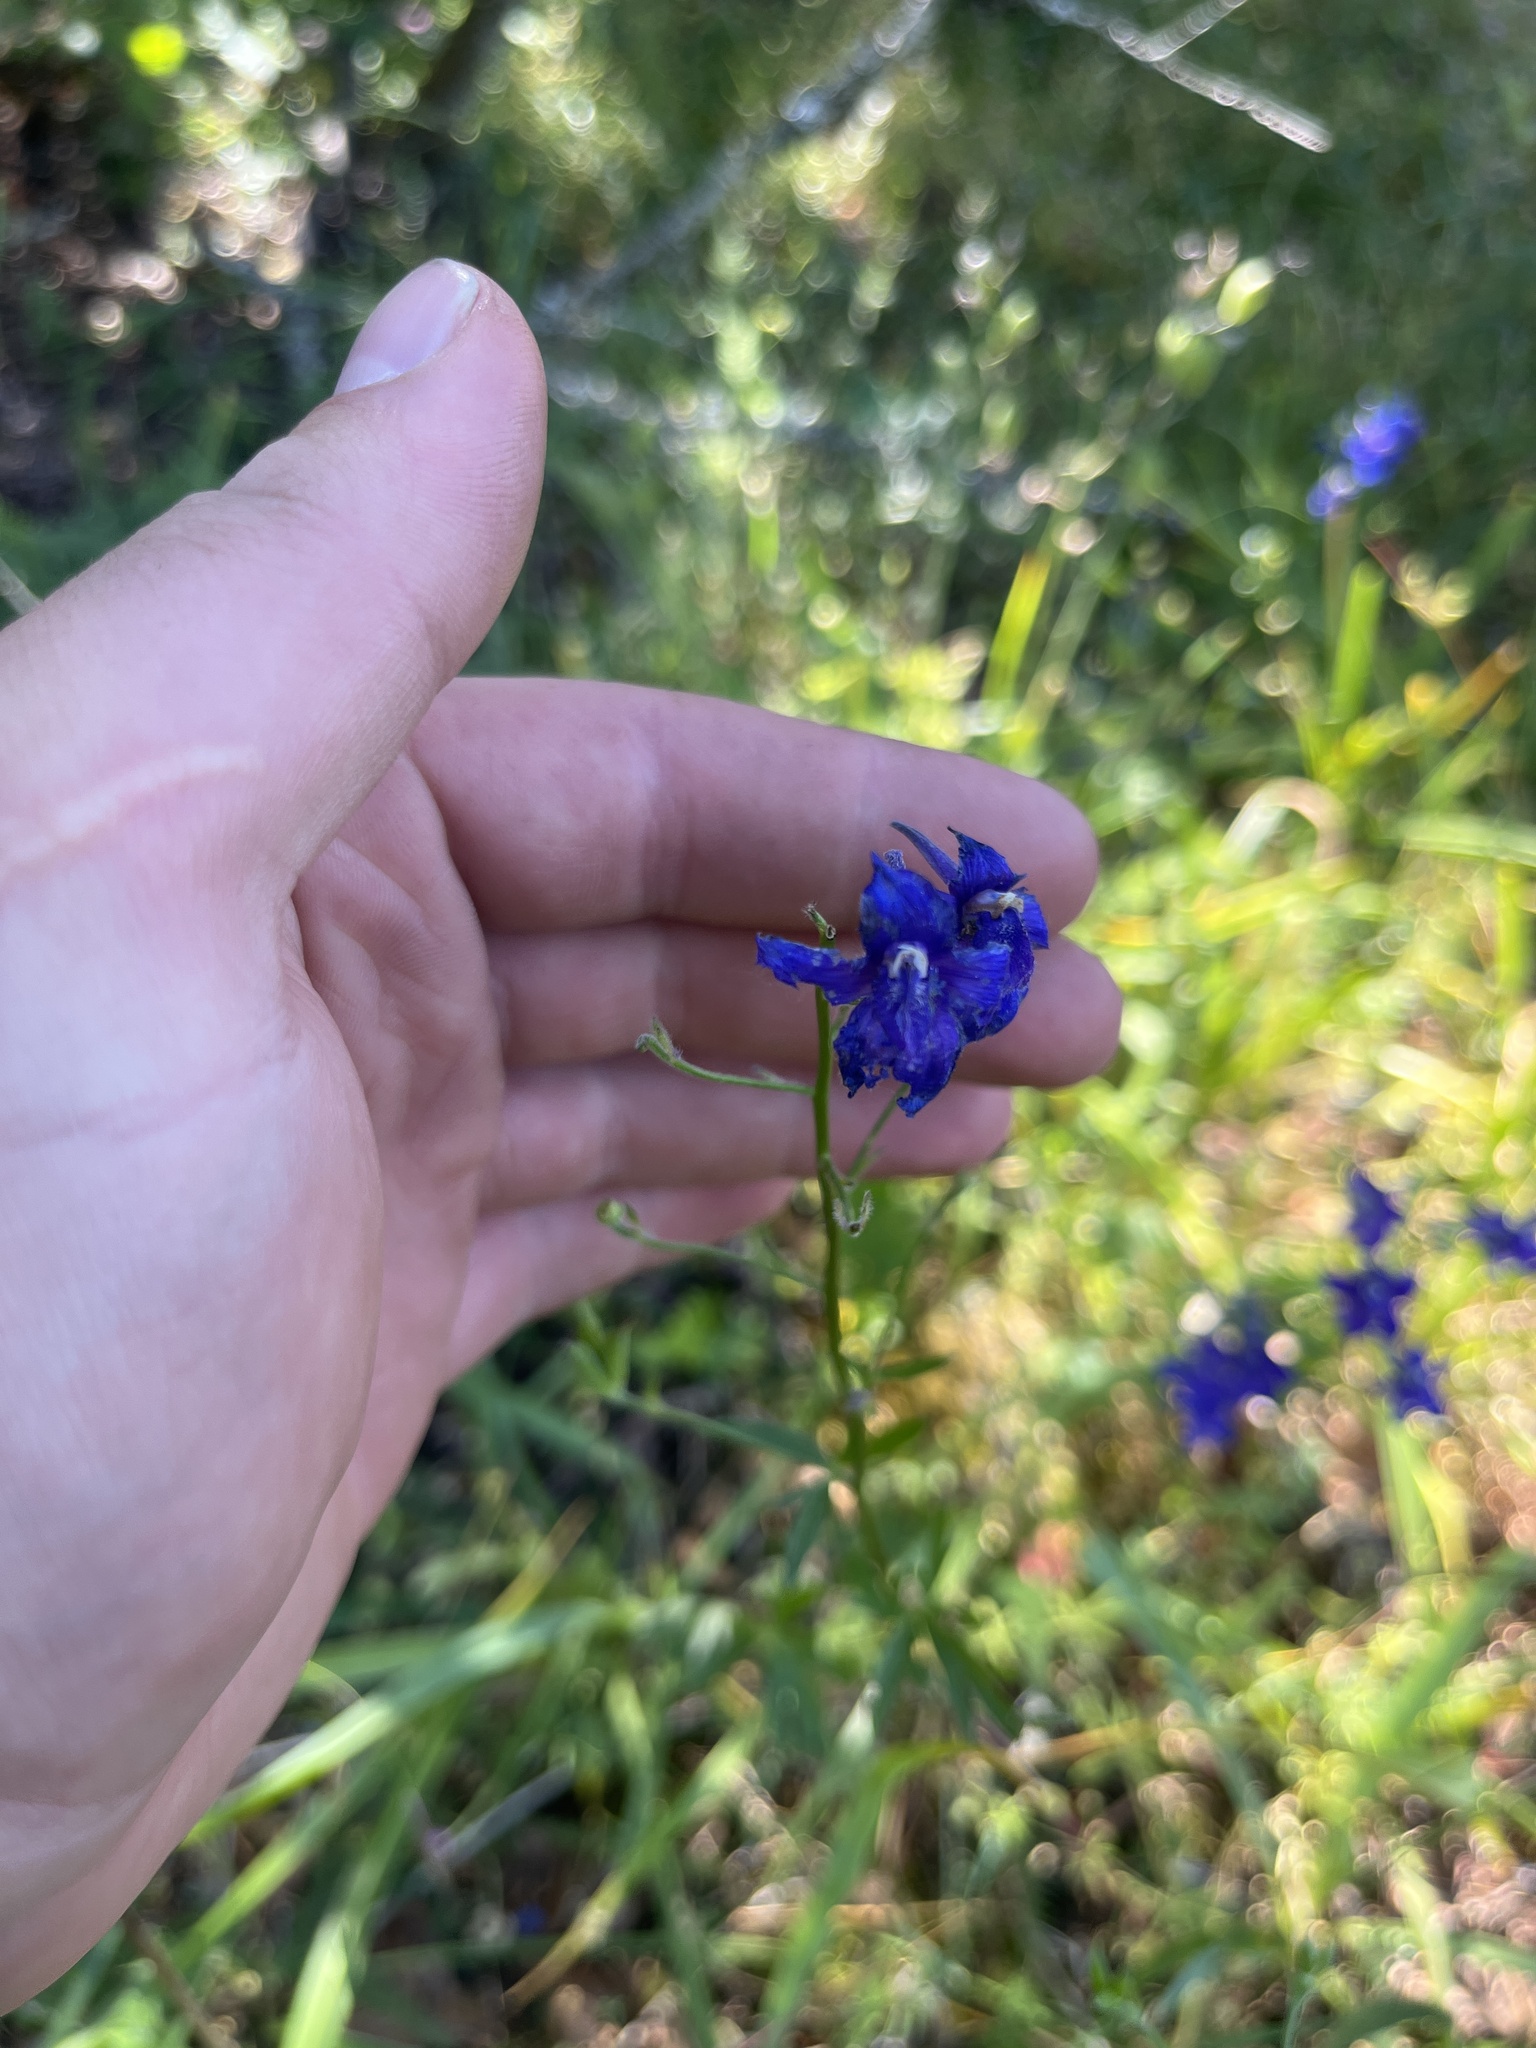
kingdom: Plantae
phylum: Tracheophyta
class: Magnoliopsida
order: Ranunculales
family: Ranunculaceae
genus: Delphinium
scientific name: Delphinium menziesii
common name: Menzies's larkspur
